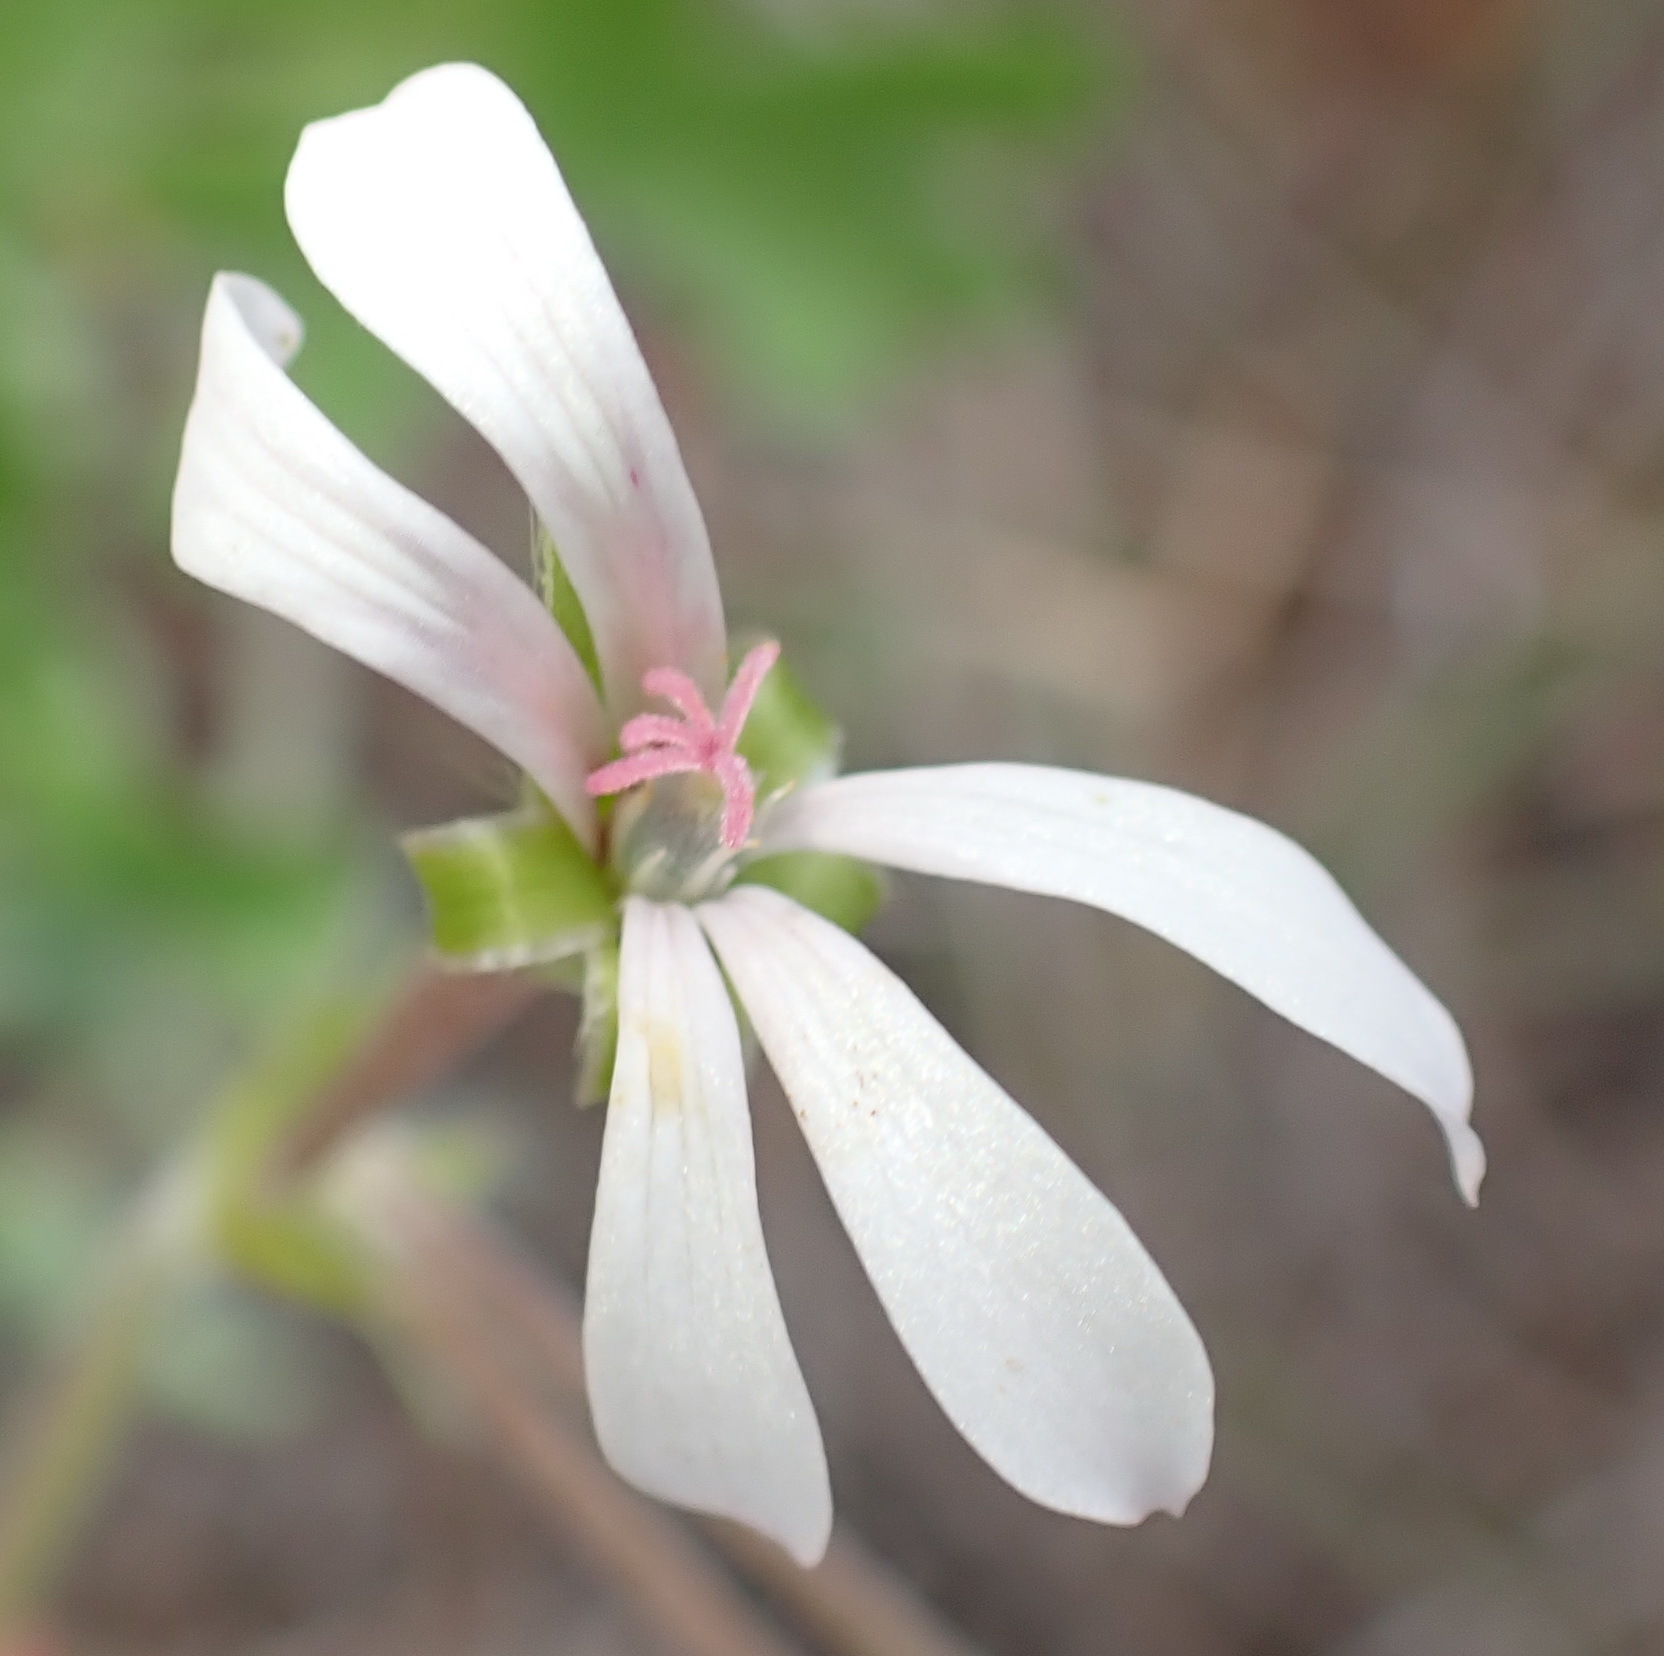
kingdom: Plantae
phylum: Tracheophyta
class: Magnoliopsida
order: Geraniales
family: Geraniaceae
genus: Pelargonium
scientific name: Pelargonium alchemilloides
